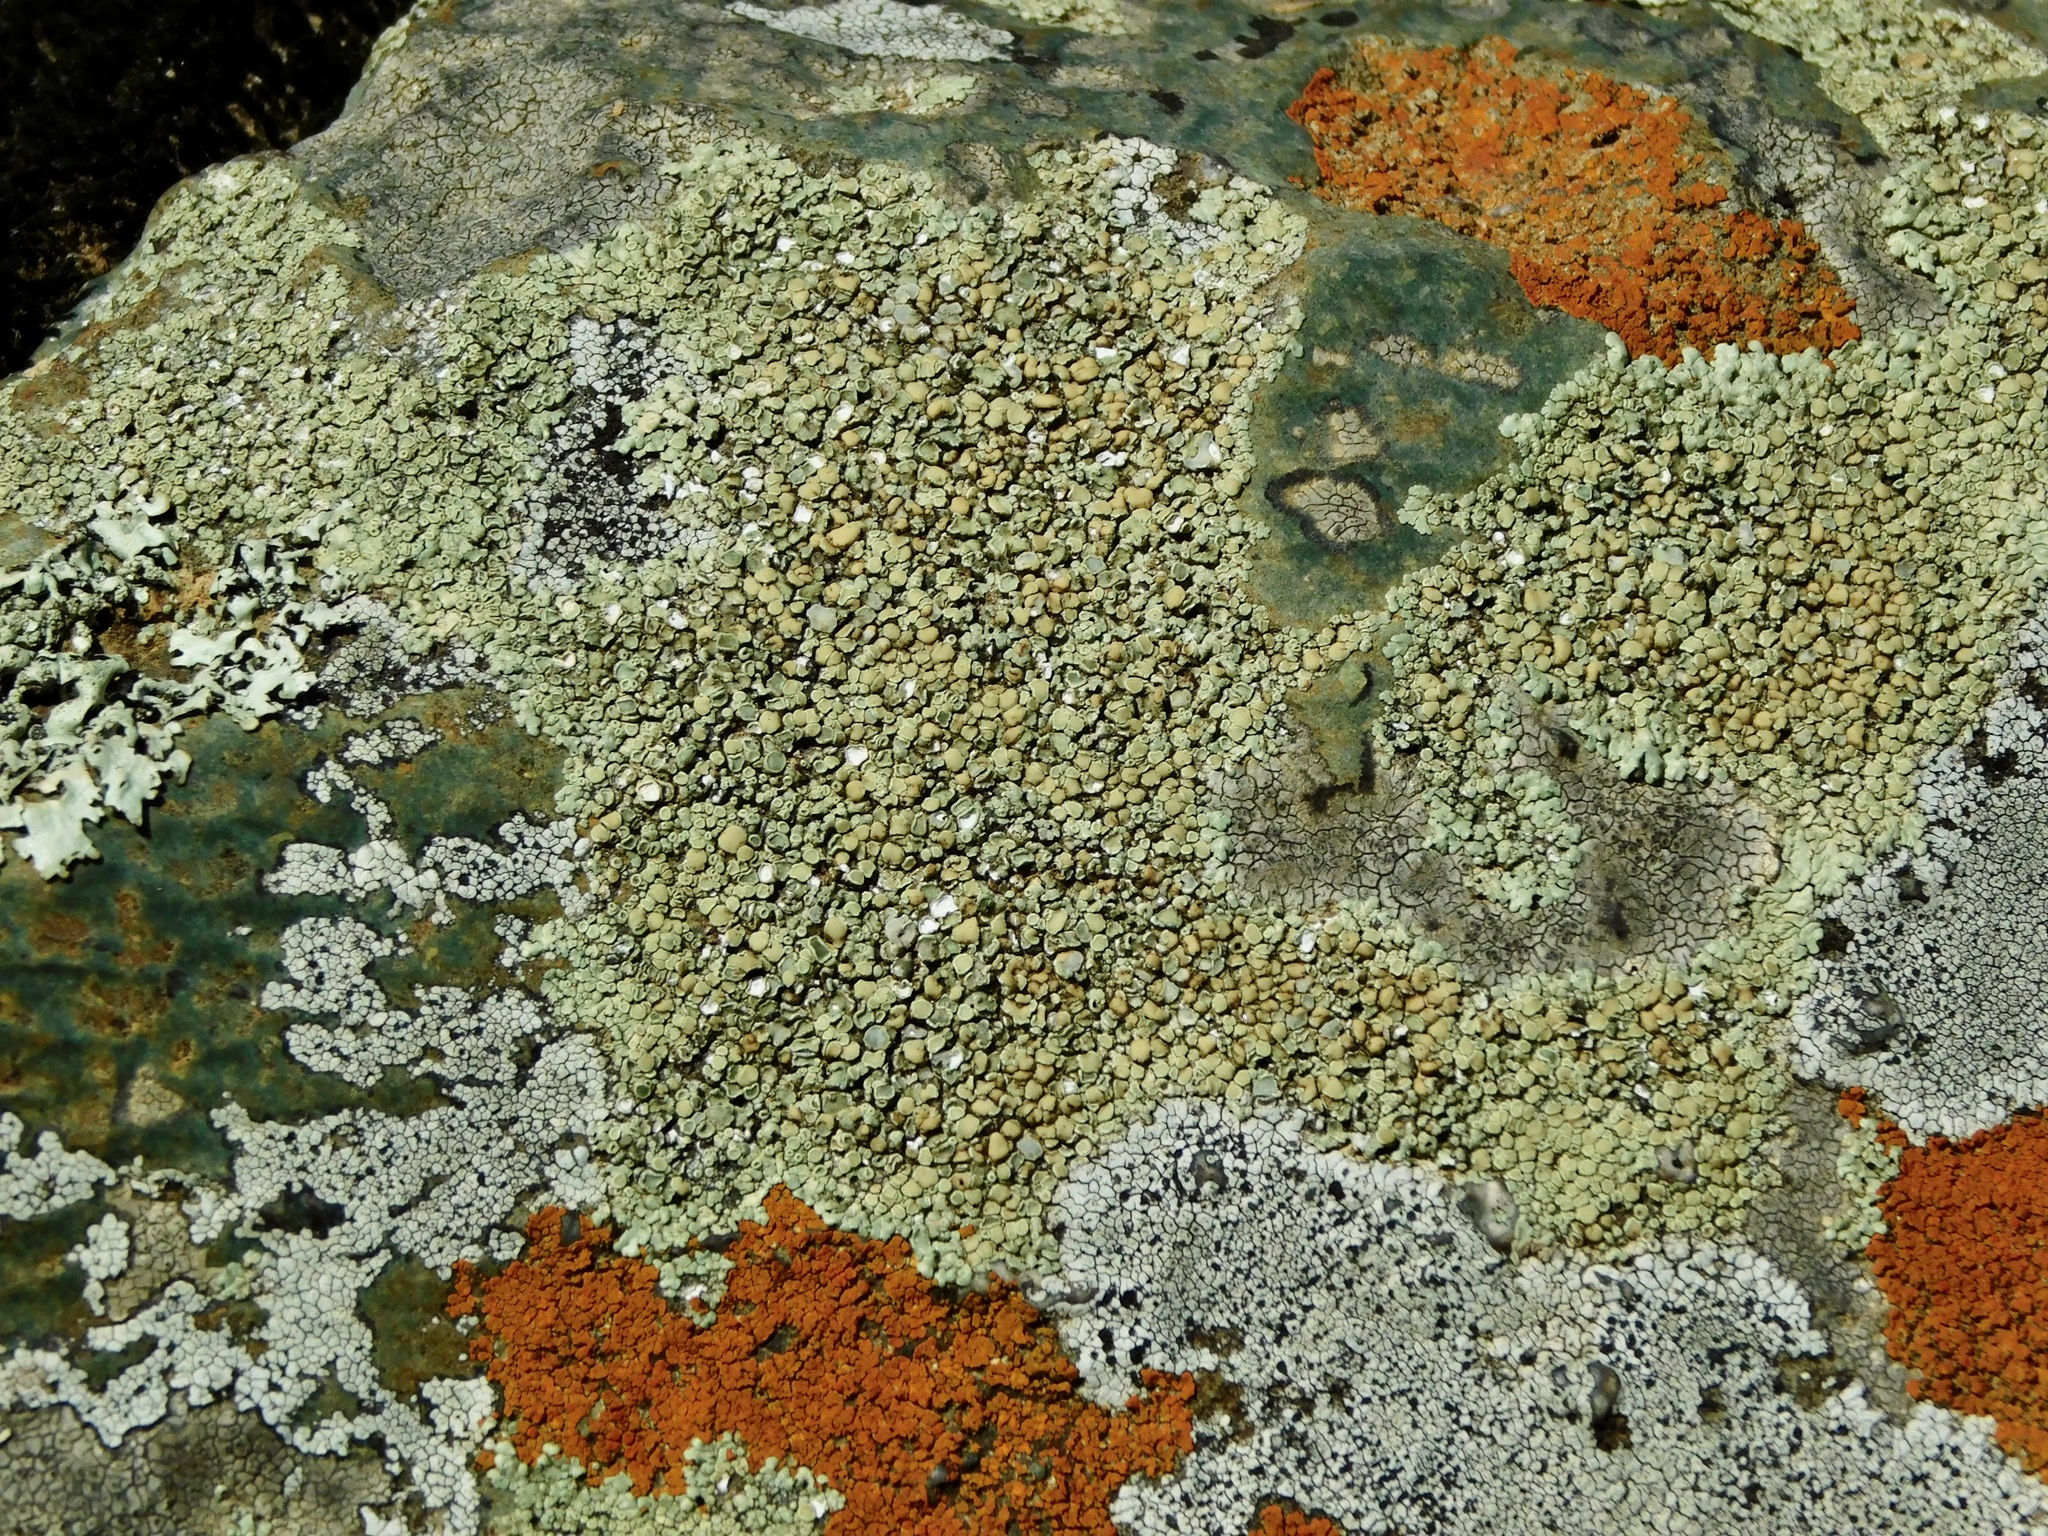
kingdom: Fungi
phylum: Ascomycota
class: Lecanoromycetes
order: Lecanorales
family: Lecanoraceae
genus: Protoparmeliopsis
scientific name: Protoparmeliopsis muralis
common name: Stonewall rim lichen
